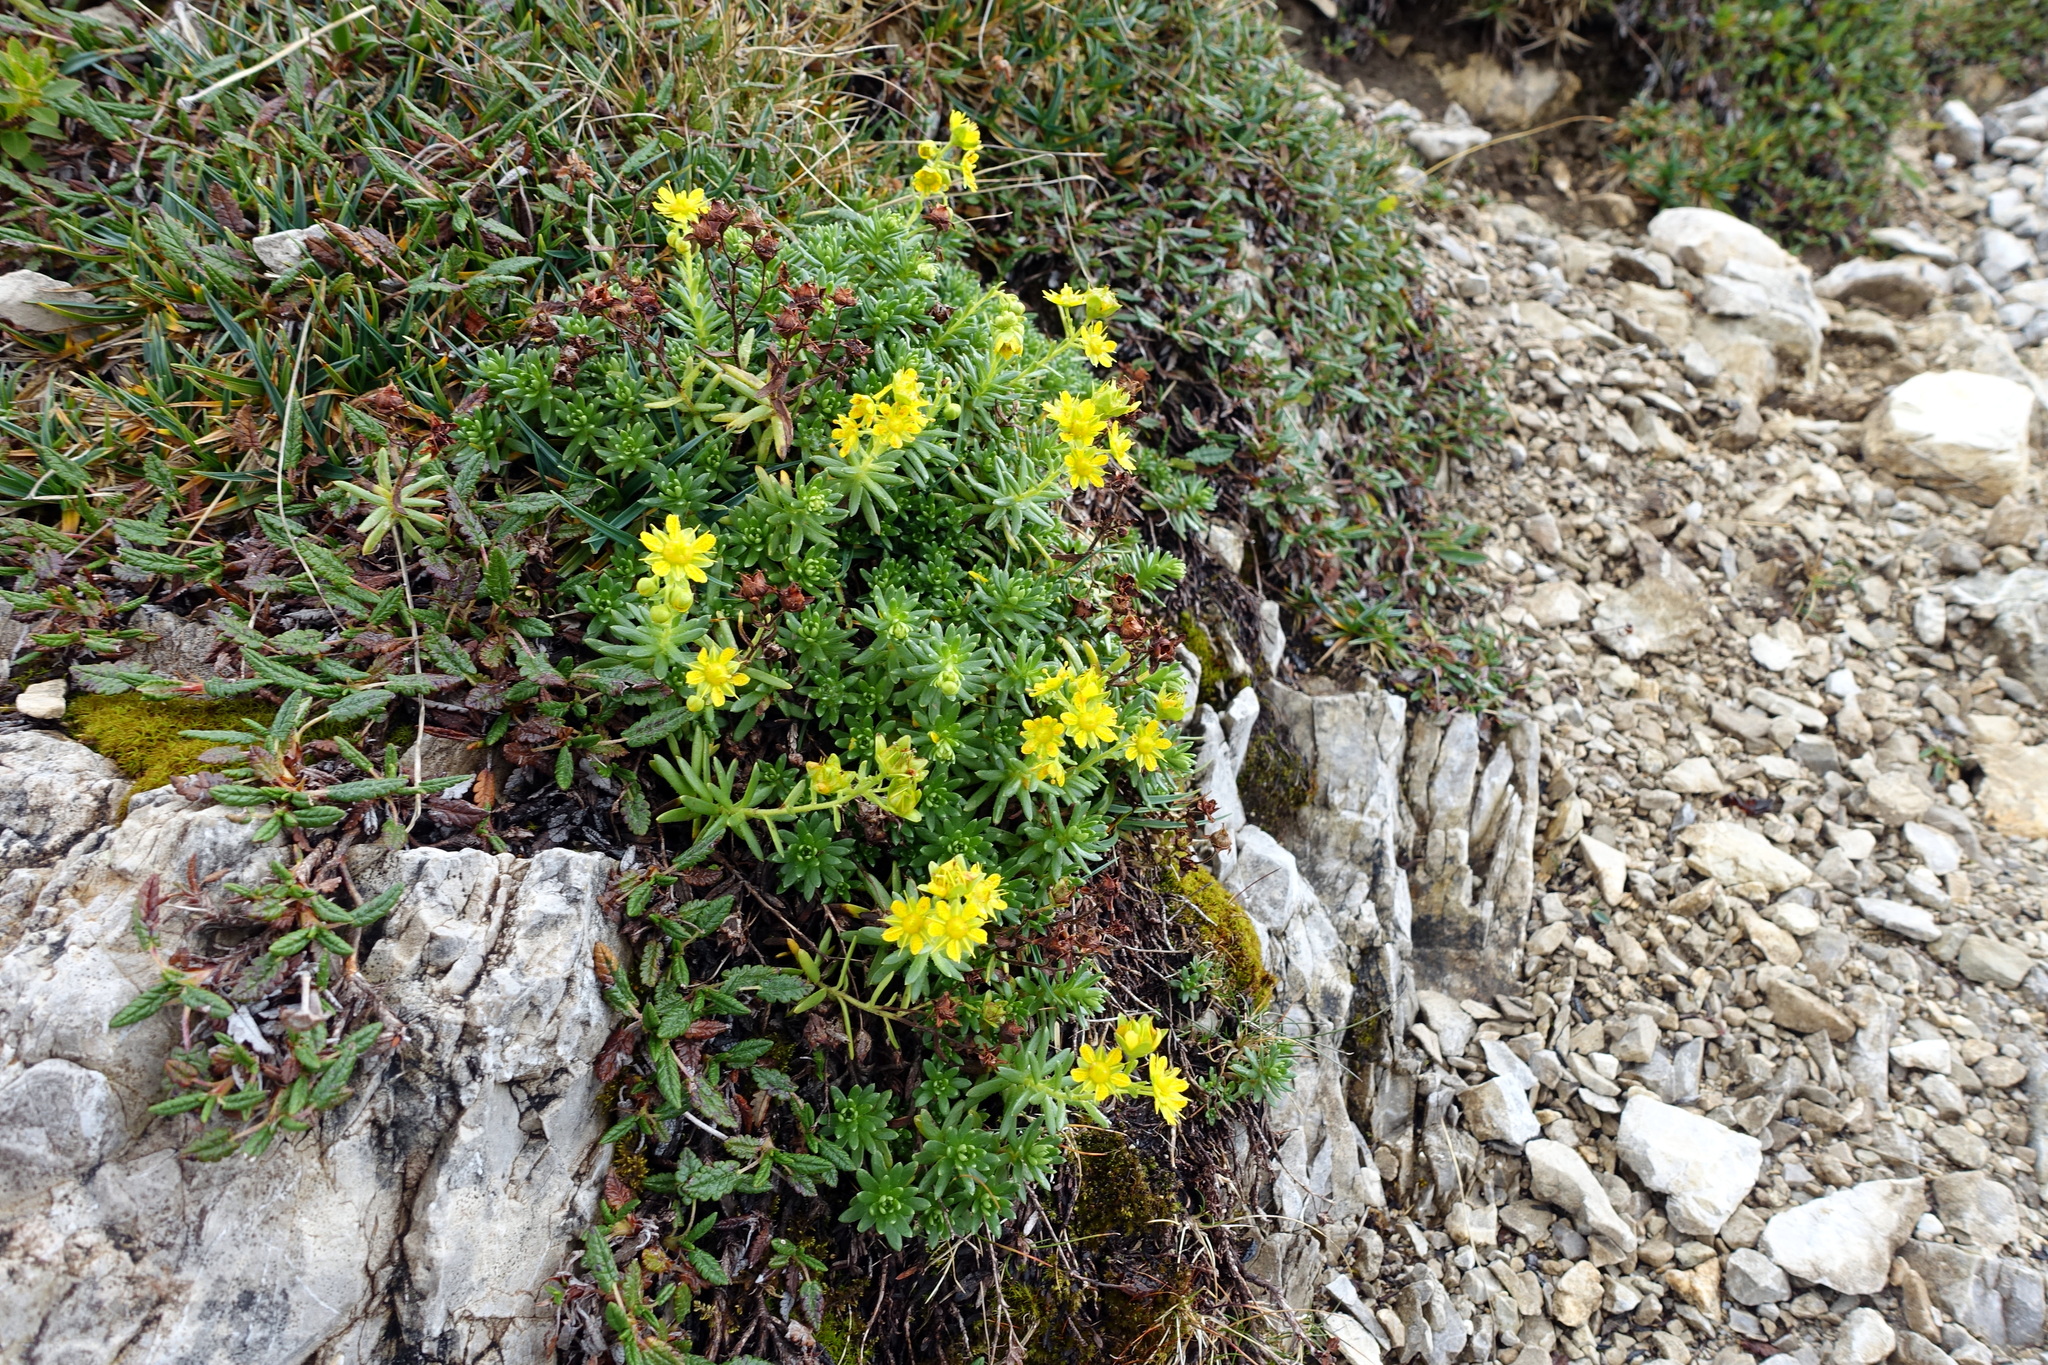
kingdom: Plantae
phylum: Tracheophyta
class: Magnoliopsida
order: Saxifragales
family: Saxifragaceae
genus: Saxifraga
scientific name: Saxifraga aizoides
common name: Yellow mountain saxifrage
